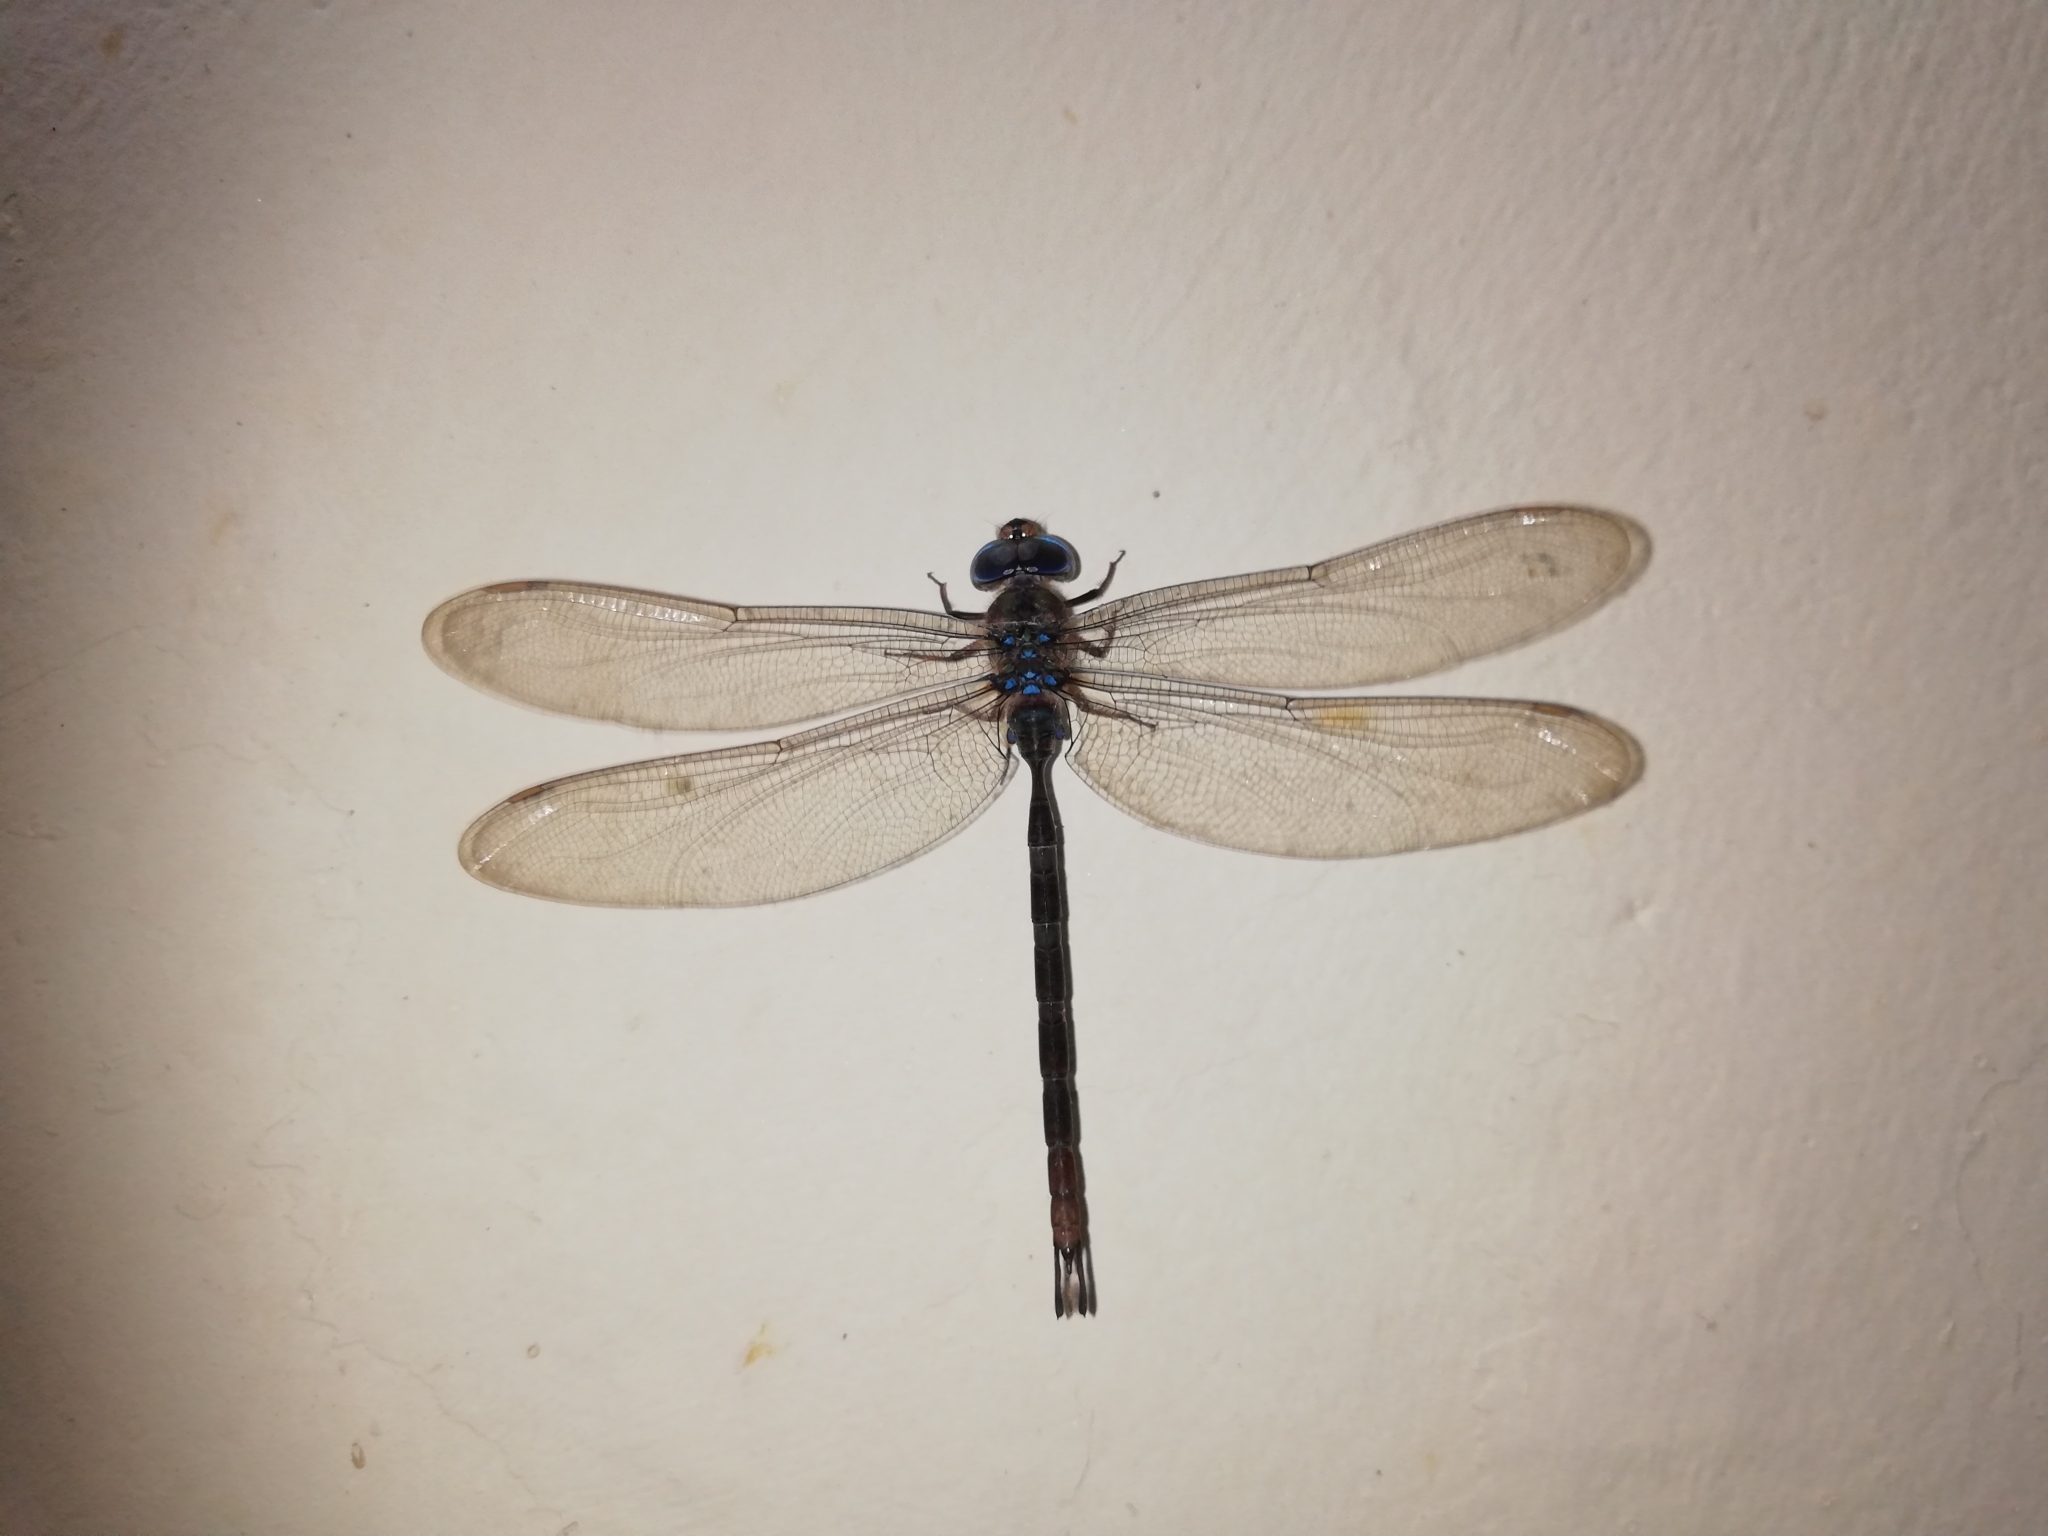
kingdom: Animalia
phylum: Arthropoda
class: Insecta
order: Odonata
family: Aeshnidae
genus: Gynacantha
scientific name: Gynacantha dravida
